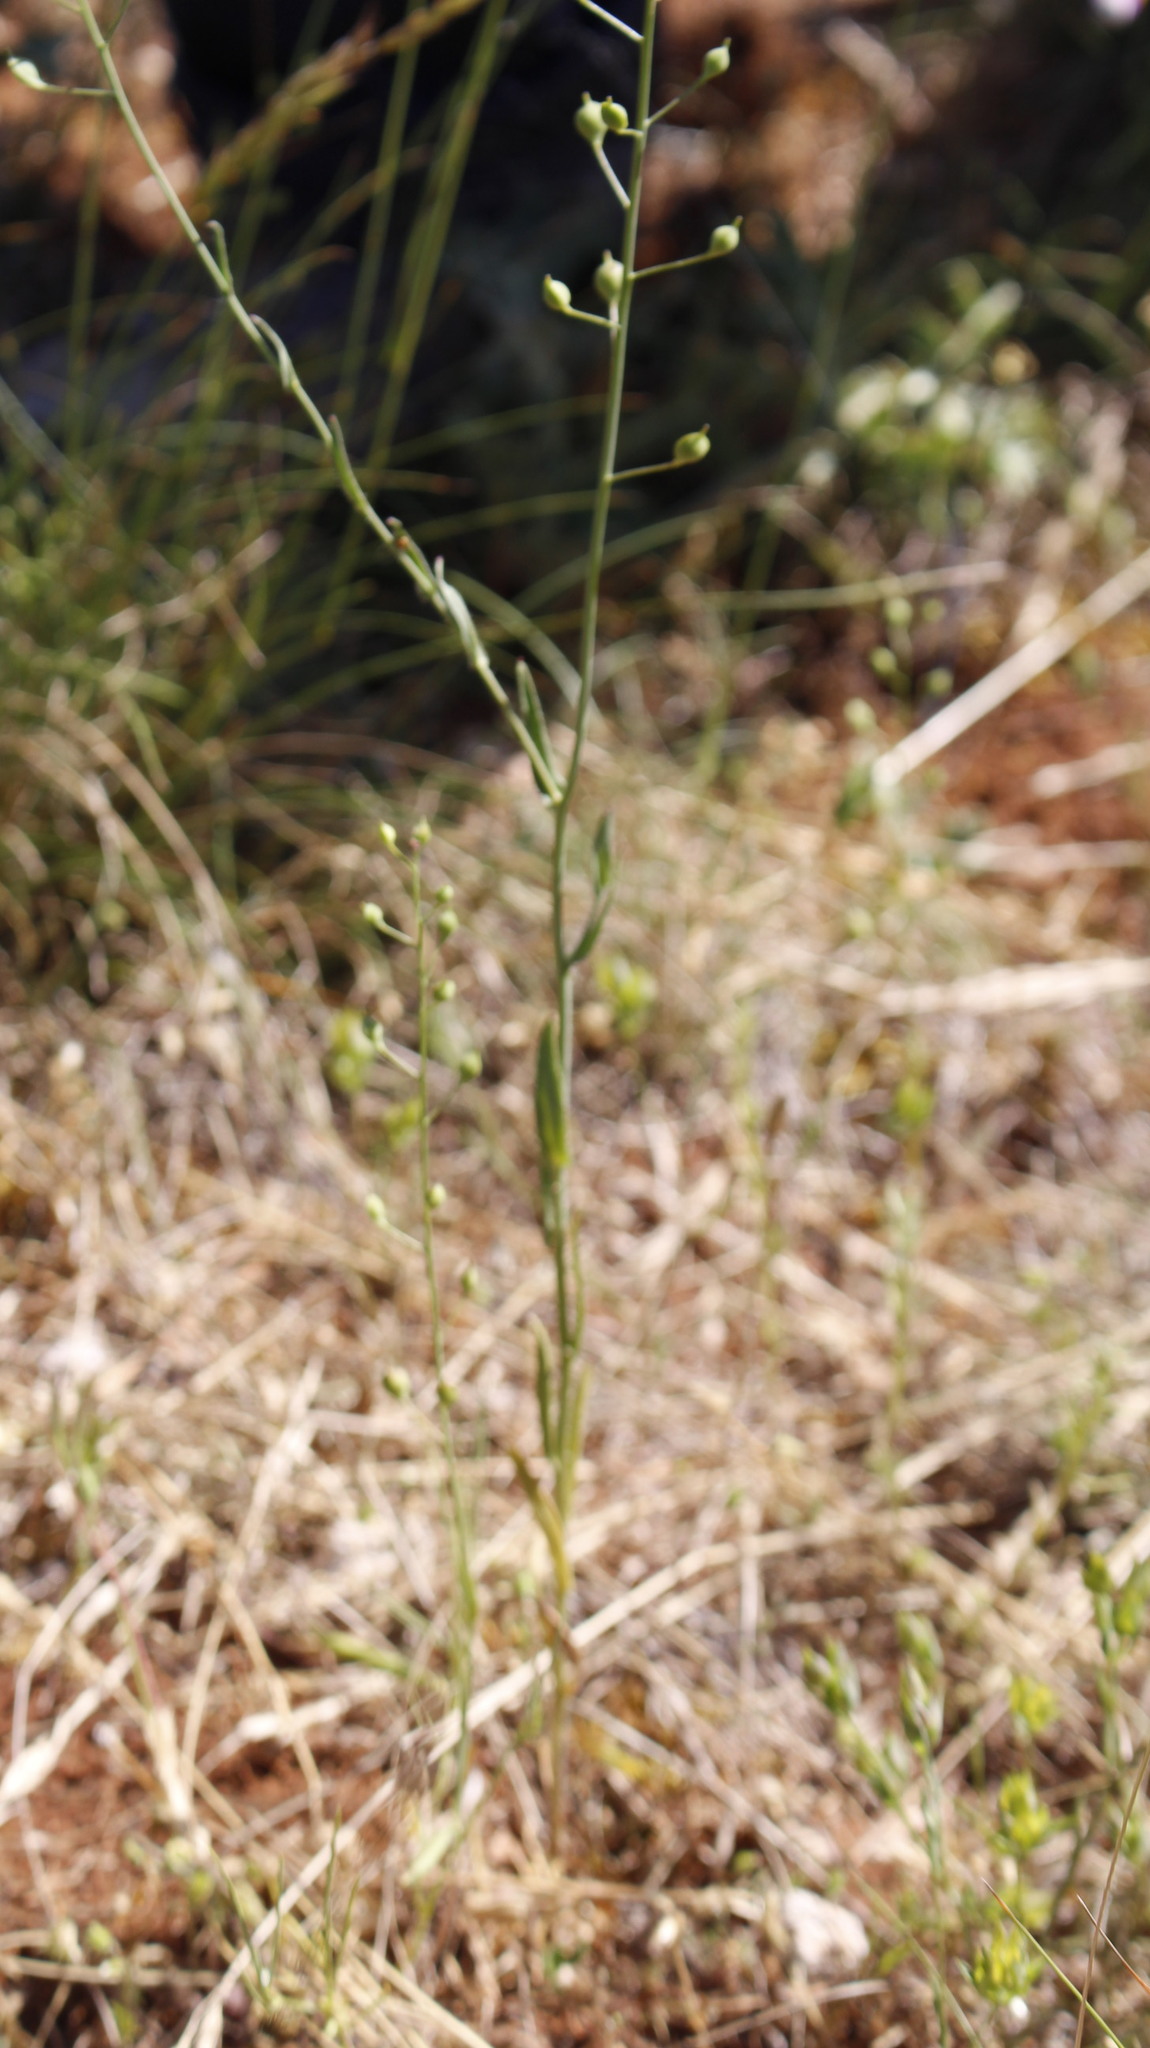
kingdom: Plantae
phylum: Tracheophyta
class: Magnoliopsida
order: Brassicales
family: Brassicaceae
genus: Camelina
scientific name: Camelina microcarpa
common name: Lesser gold-of-pleasure
